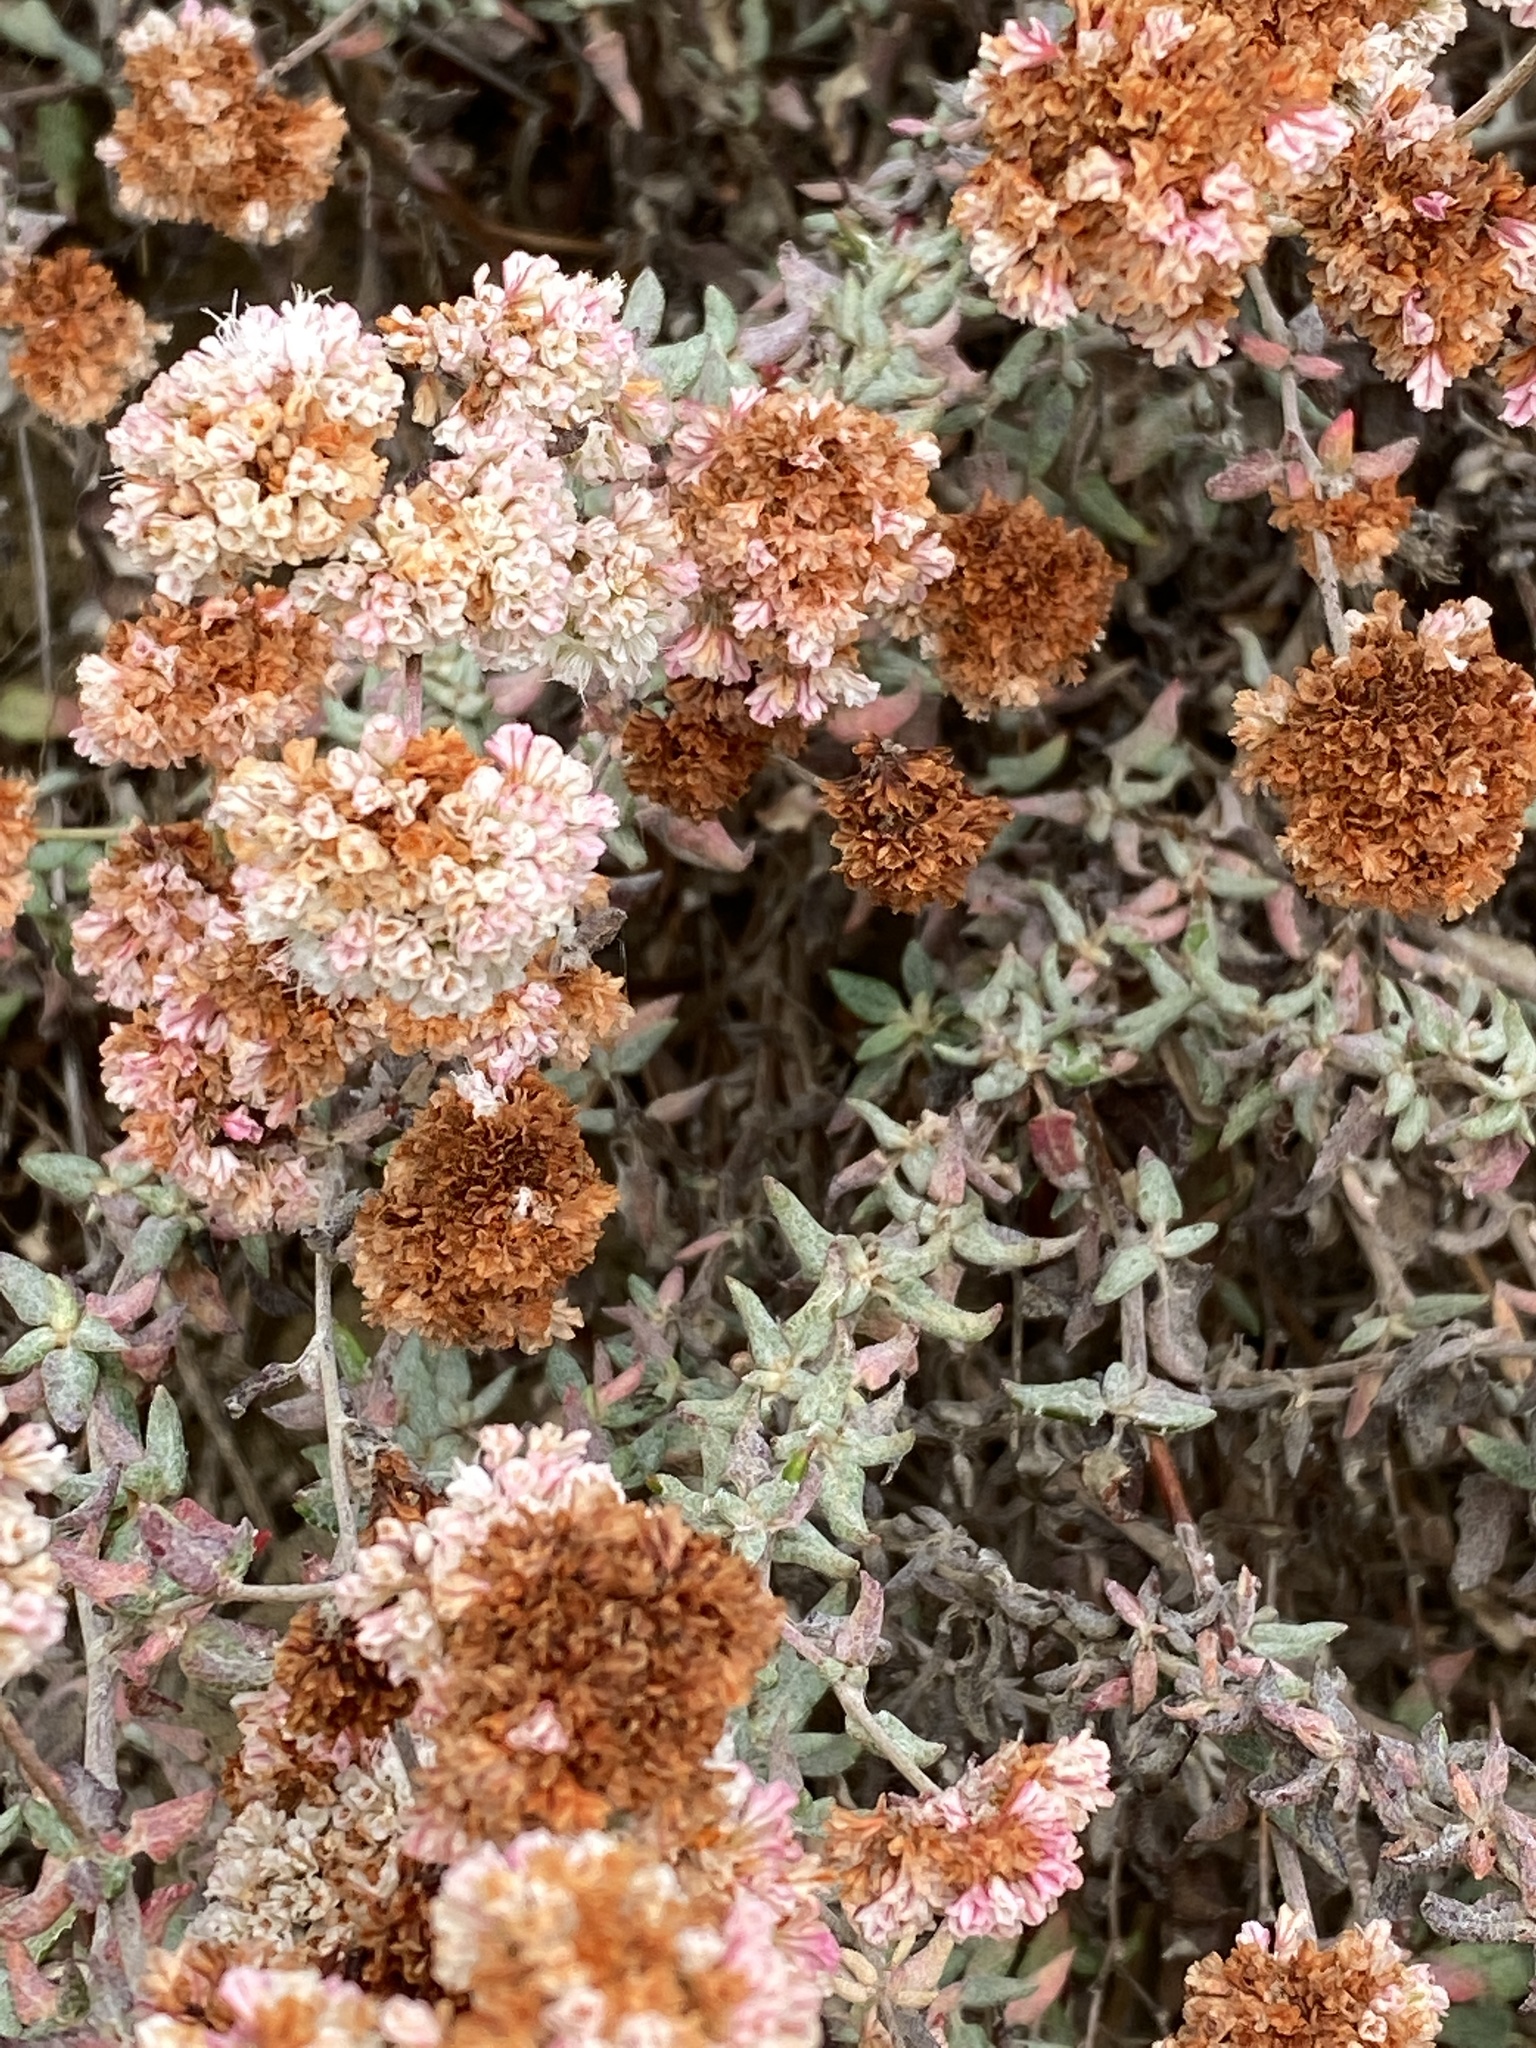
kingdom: Plantae
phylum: Tracheophyta
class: Magnoliopsida
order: Caryophyllales
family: Polygonaceae
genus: Eriogonum
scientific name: Eriogonum parvifolium
